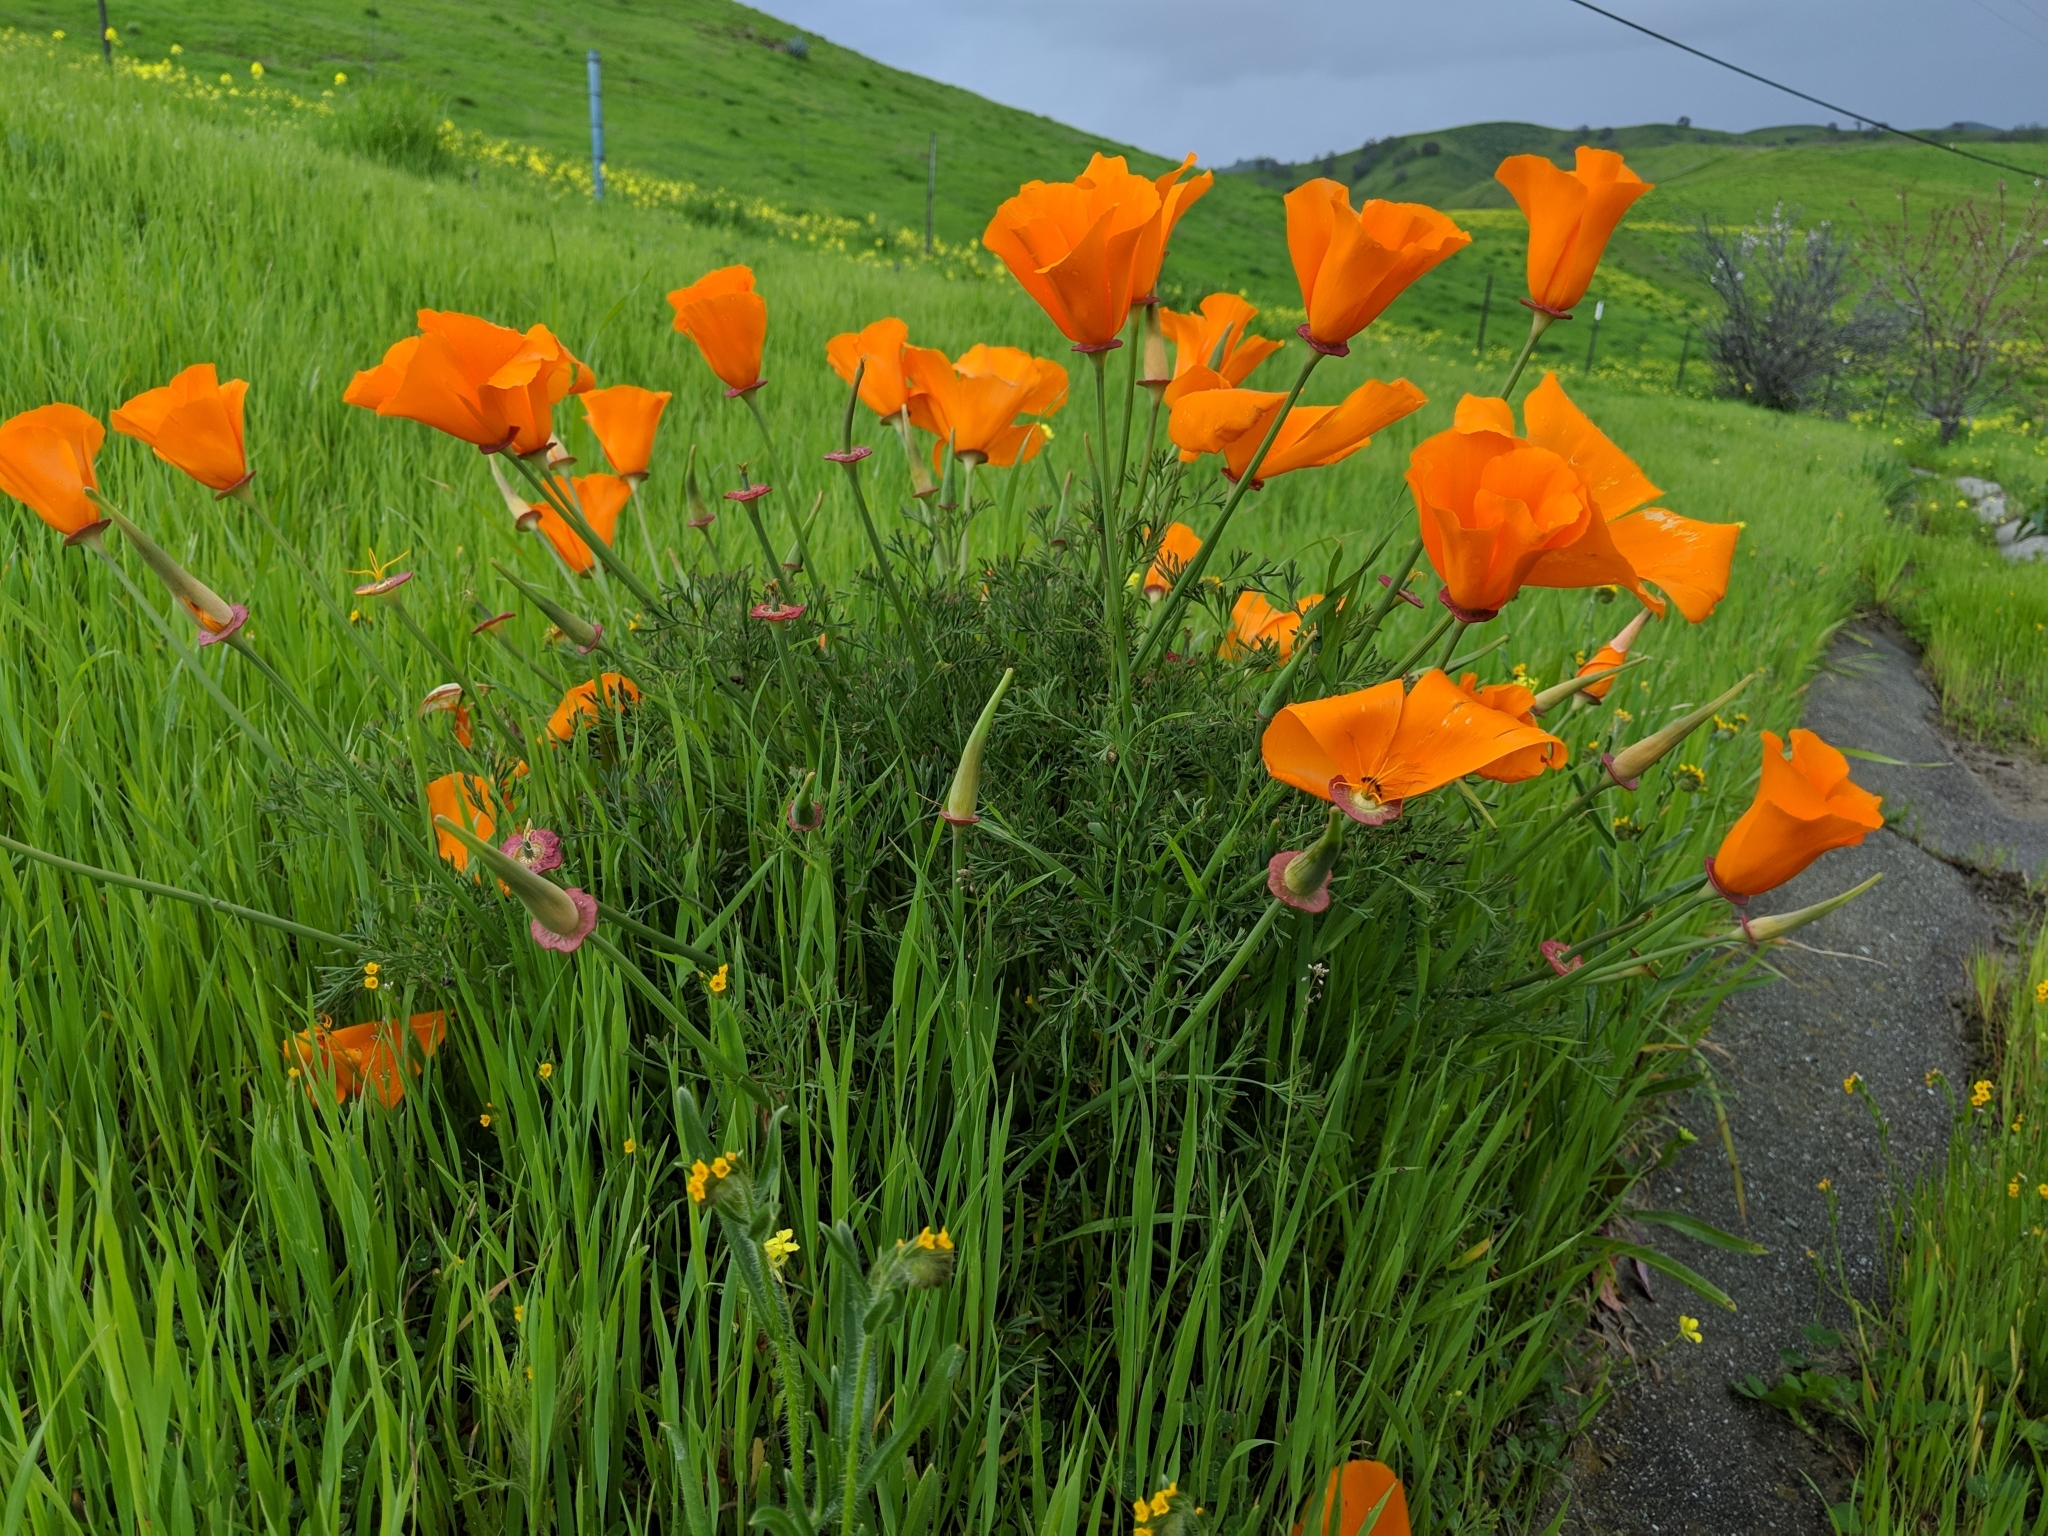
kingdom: Plantae
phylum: Tracheophyta
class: Magnoliopsida
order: Ranunculales
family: Papaveraceae
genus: Eschscholzia
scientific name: Eschscholzia californica
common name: California poppy
